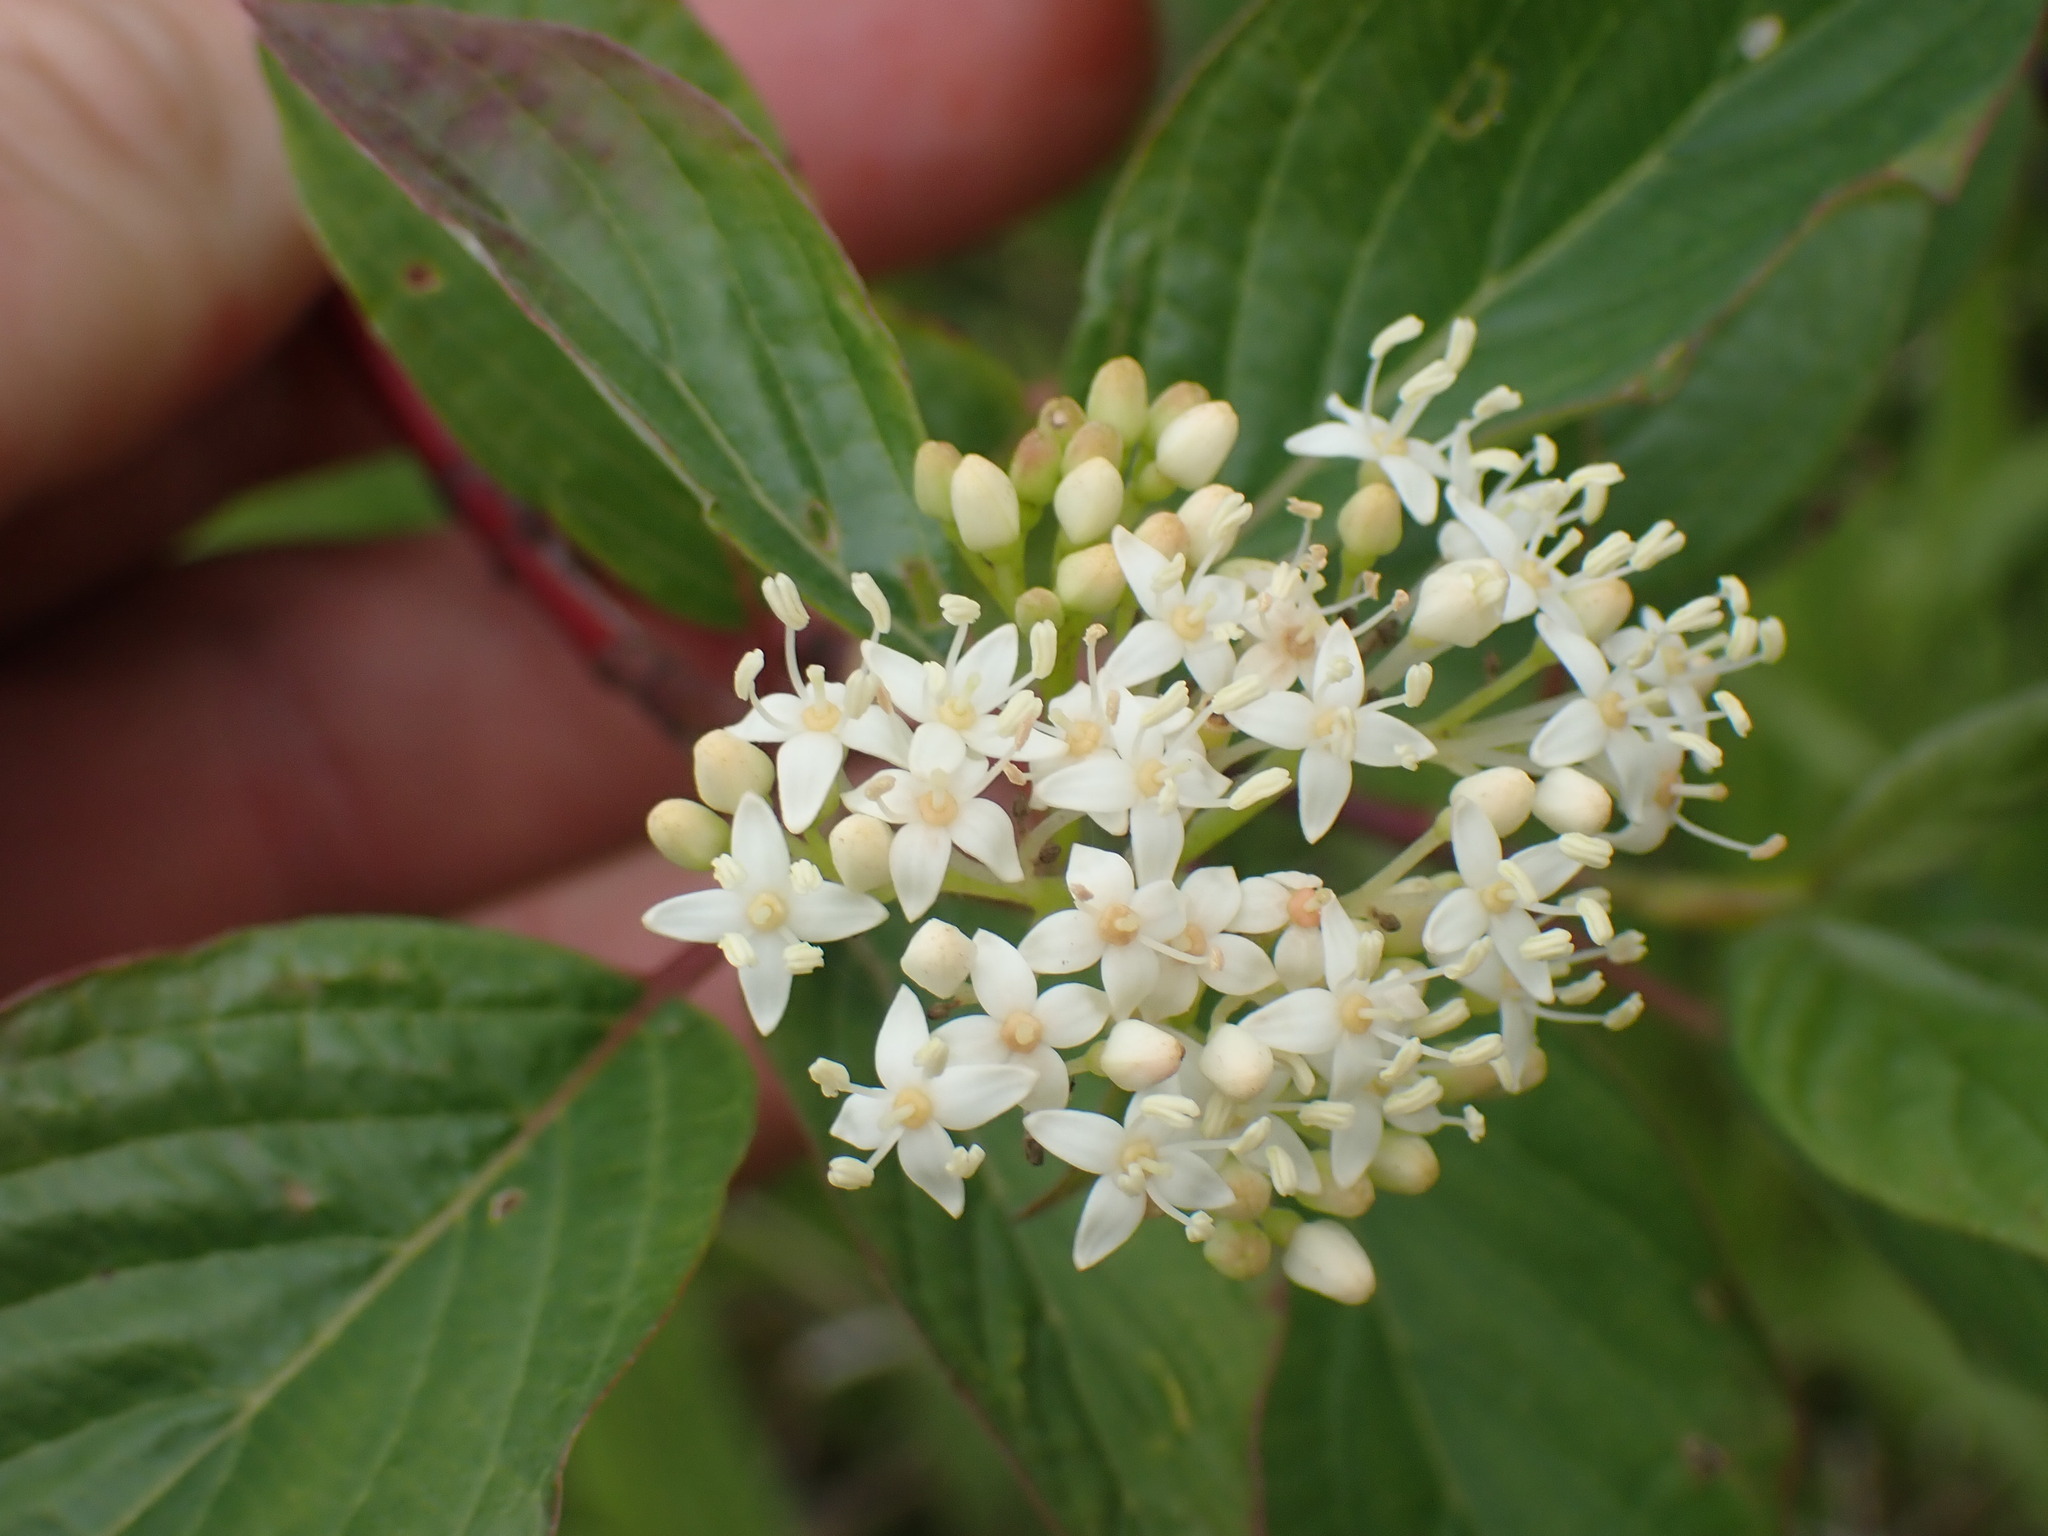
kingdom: Plantae
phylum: Tracheophyta
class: Magnoliopsida
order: Cornales
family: Cornaceae
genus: Cornus
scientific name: Cornus sericea
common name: Red-osier dogwood
